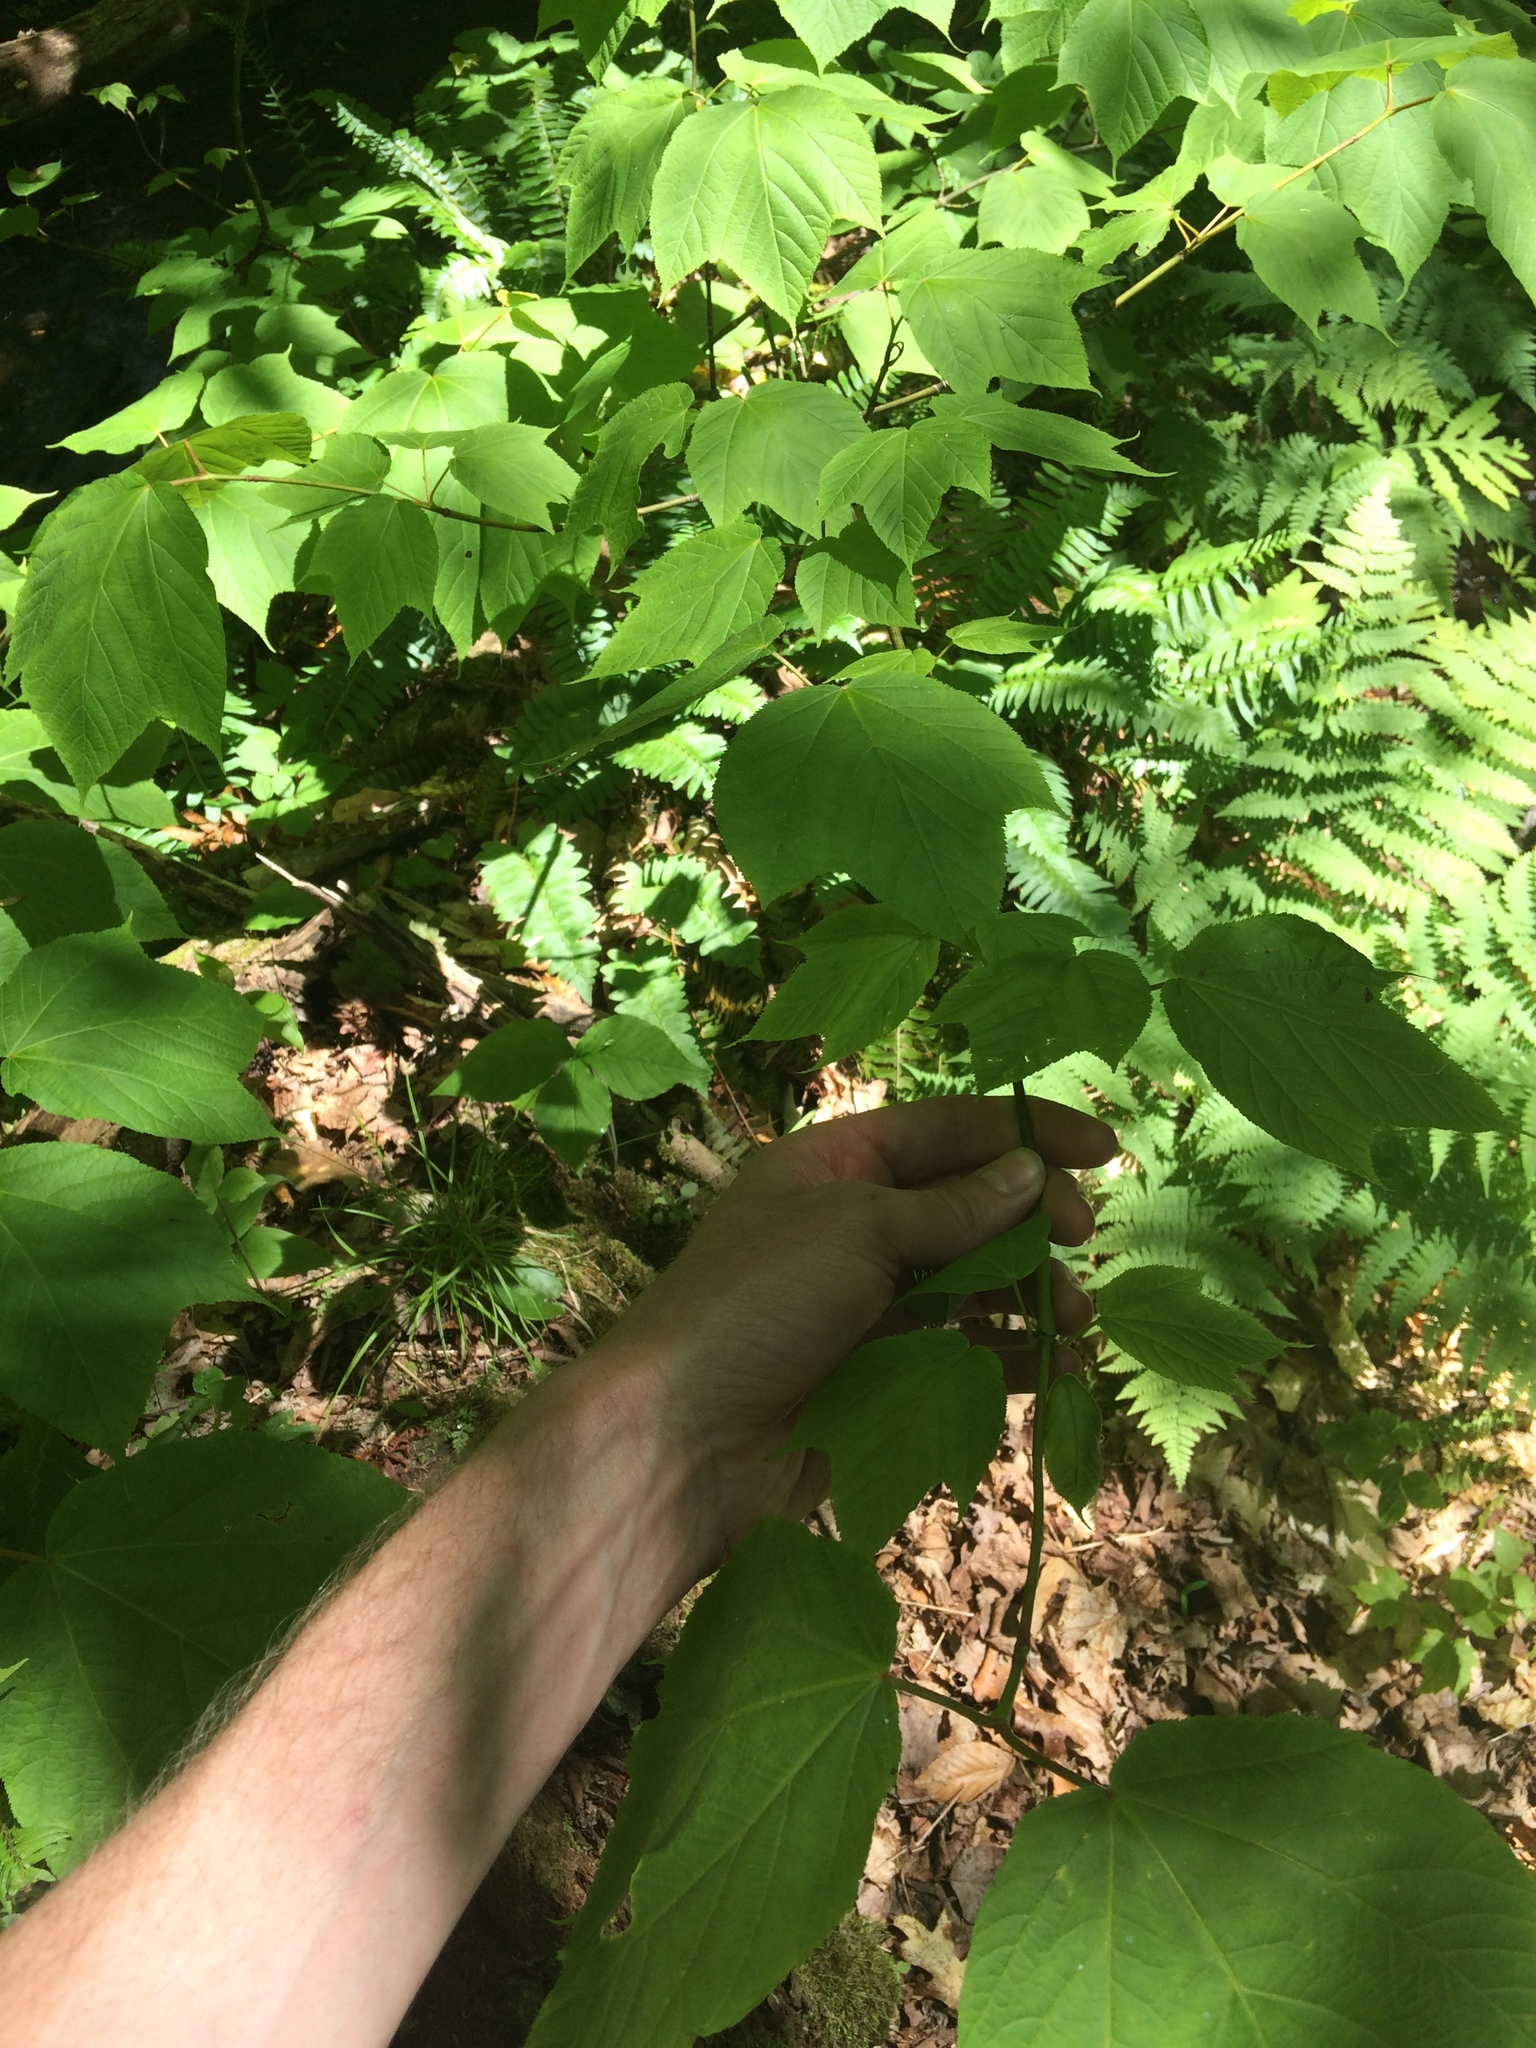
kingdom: Plantae
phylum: Tracheophyta
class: Magnoliopsida
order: Sapindales
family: Sapindaceae
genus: Acer
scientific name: Acer pensylvanicum
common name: Moosewood
